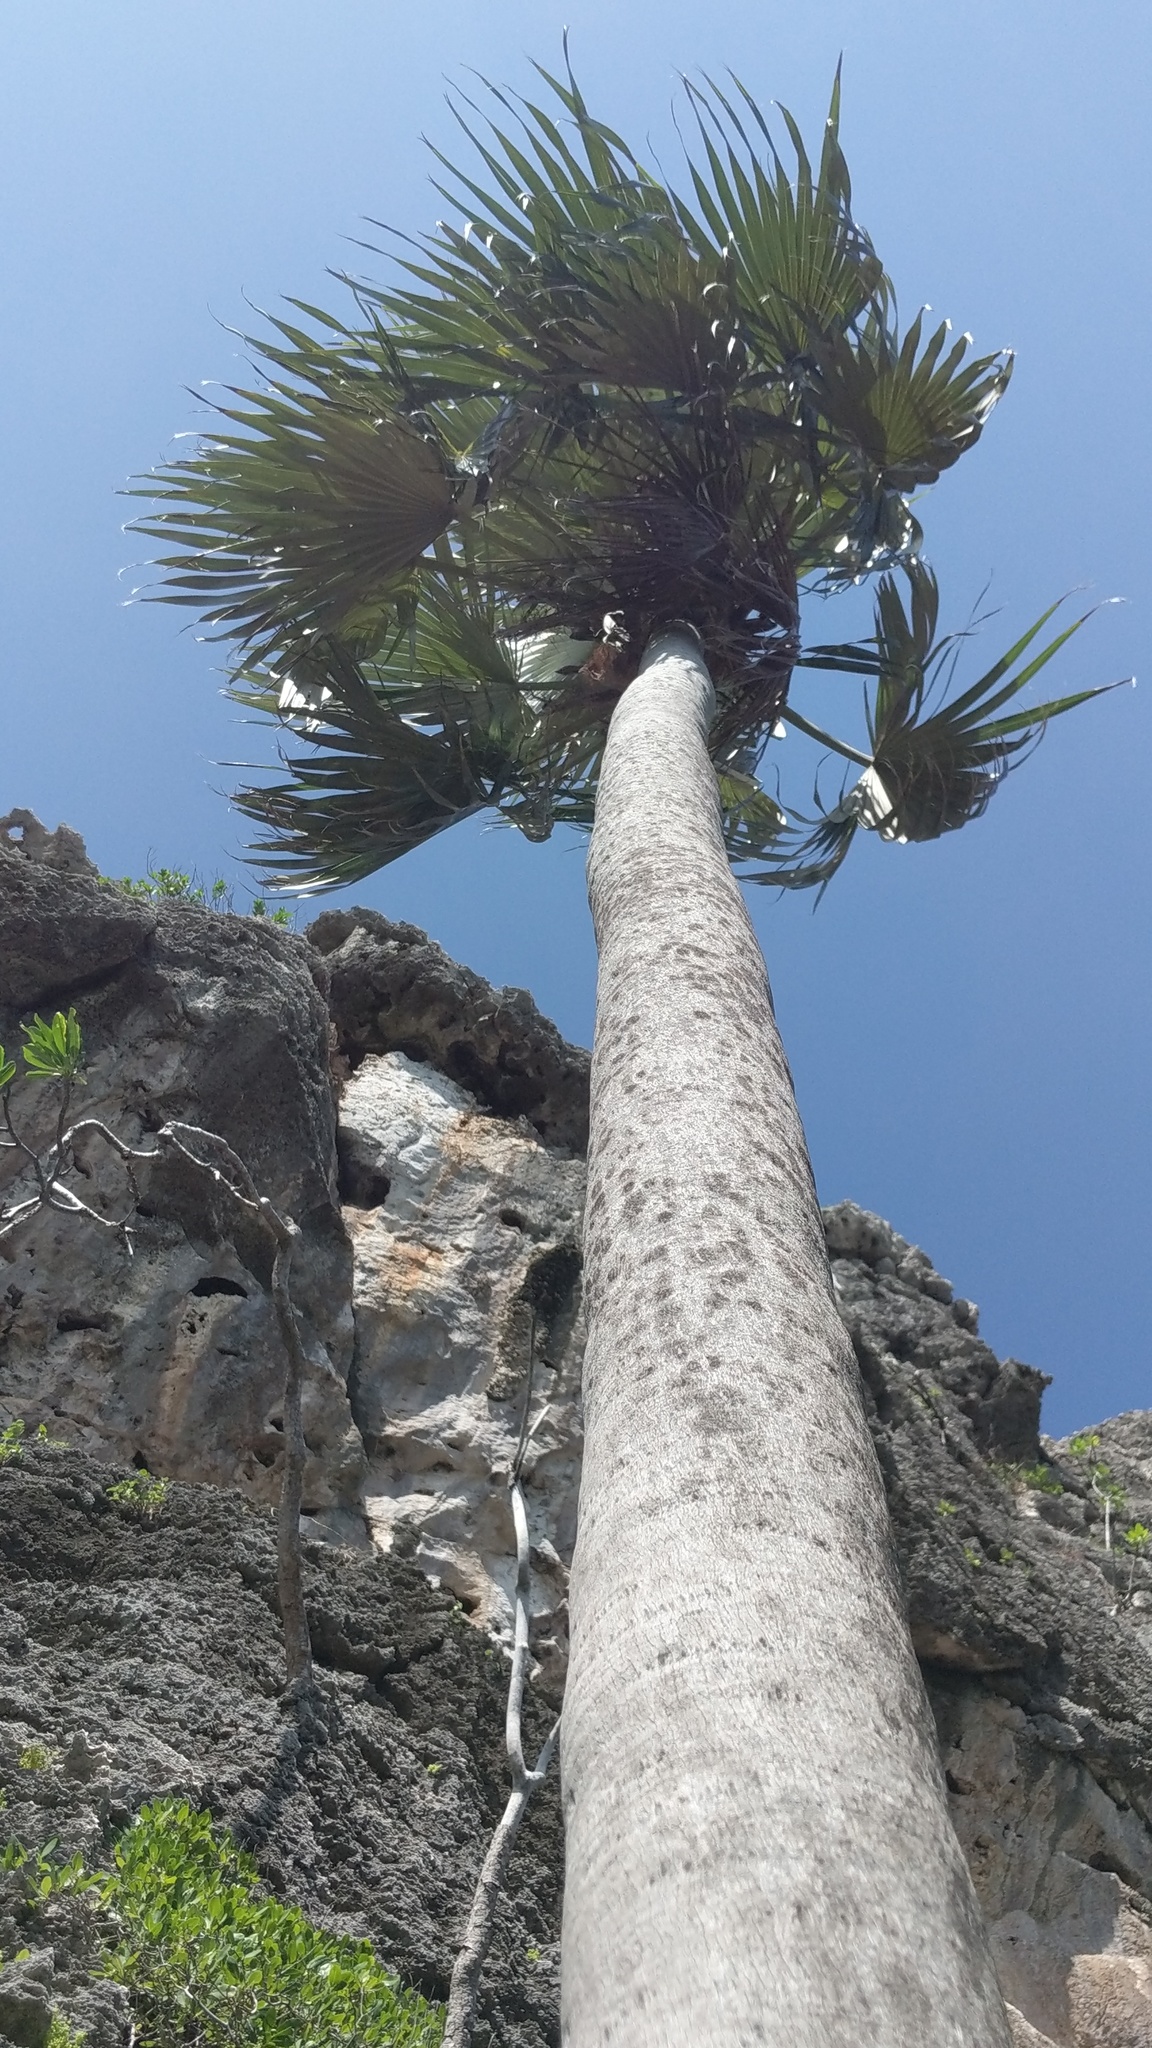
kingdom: Plantae
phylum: Tracheophyta
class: Liliopsida
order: Arecales
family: Arecaceae
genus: Coccothrinax
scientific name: Coccothrinax proctorii
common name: Silver palm
